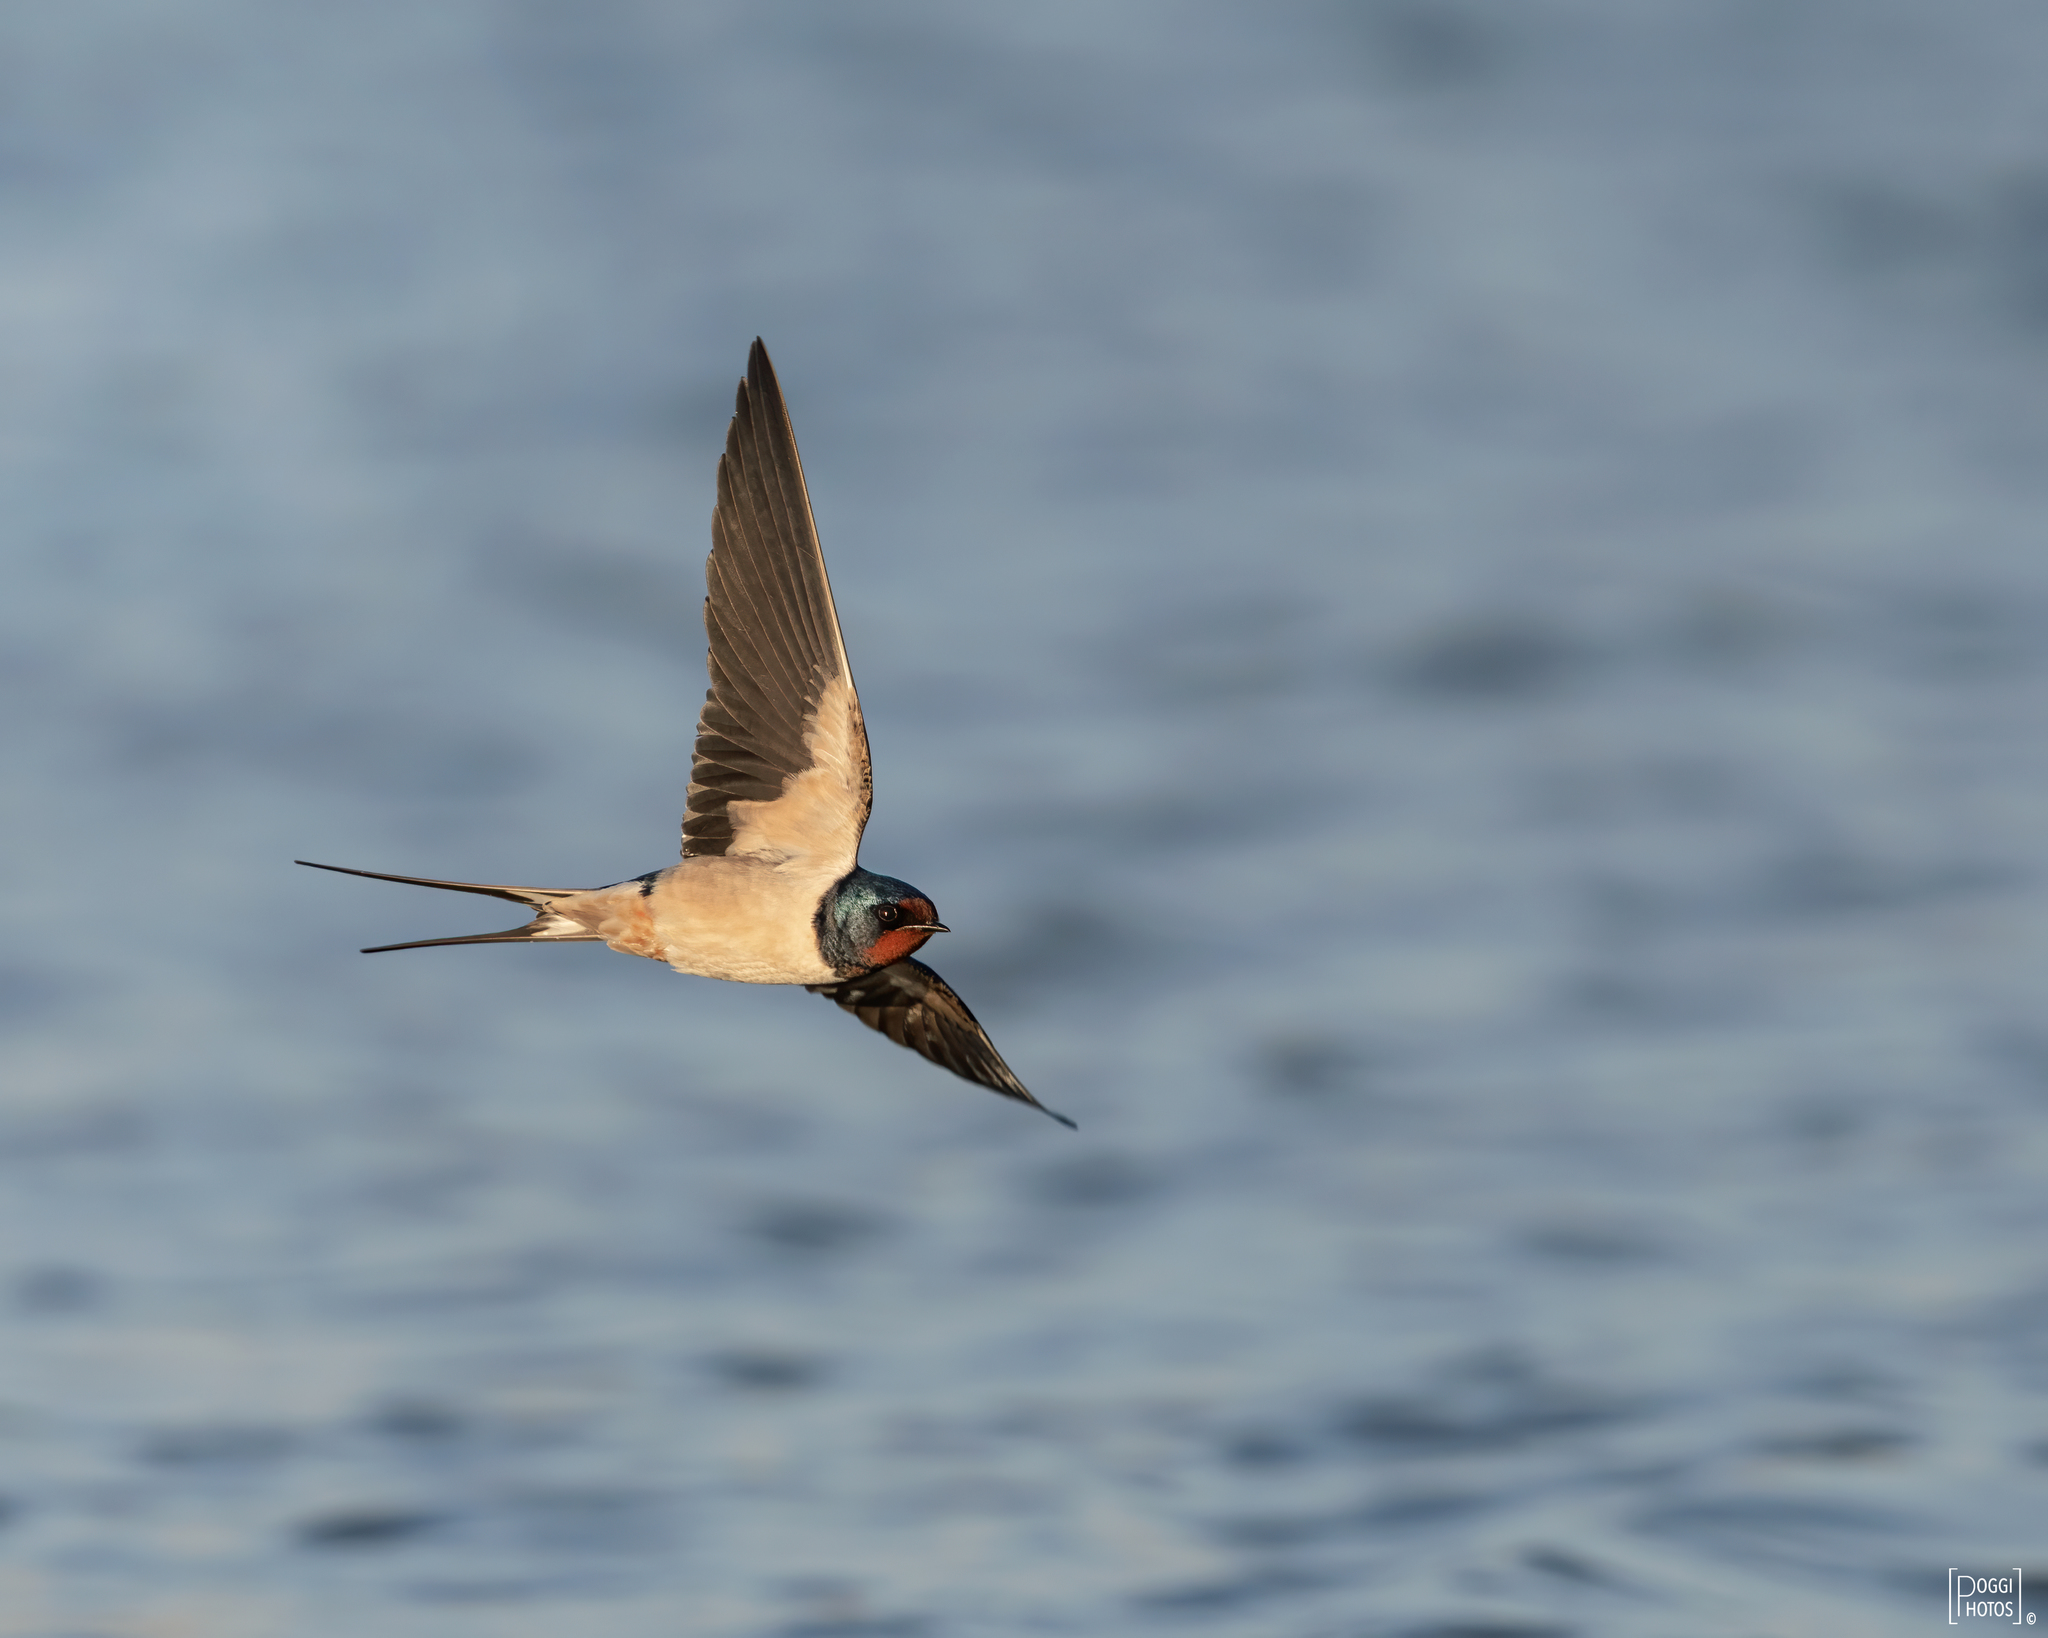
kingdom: Animalia
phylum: Chordata
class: Aves
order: Passeriformes
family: Hirundinidae
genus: Hirundo
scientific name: Hirundo rustica
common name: Barn swallow
